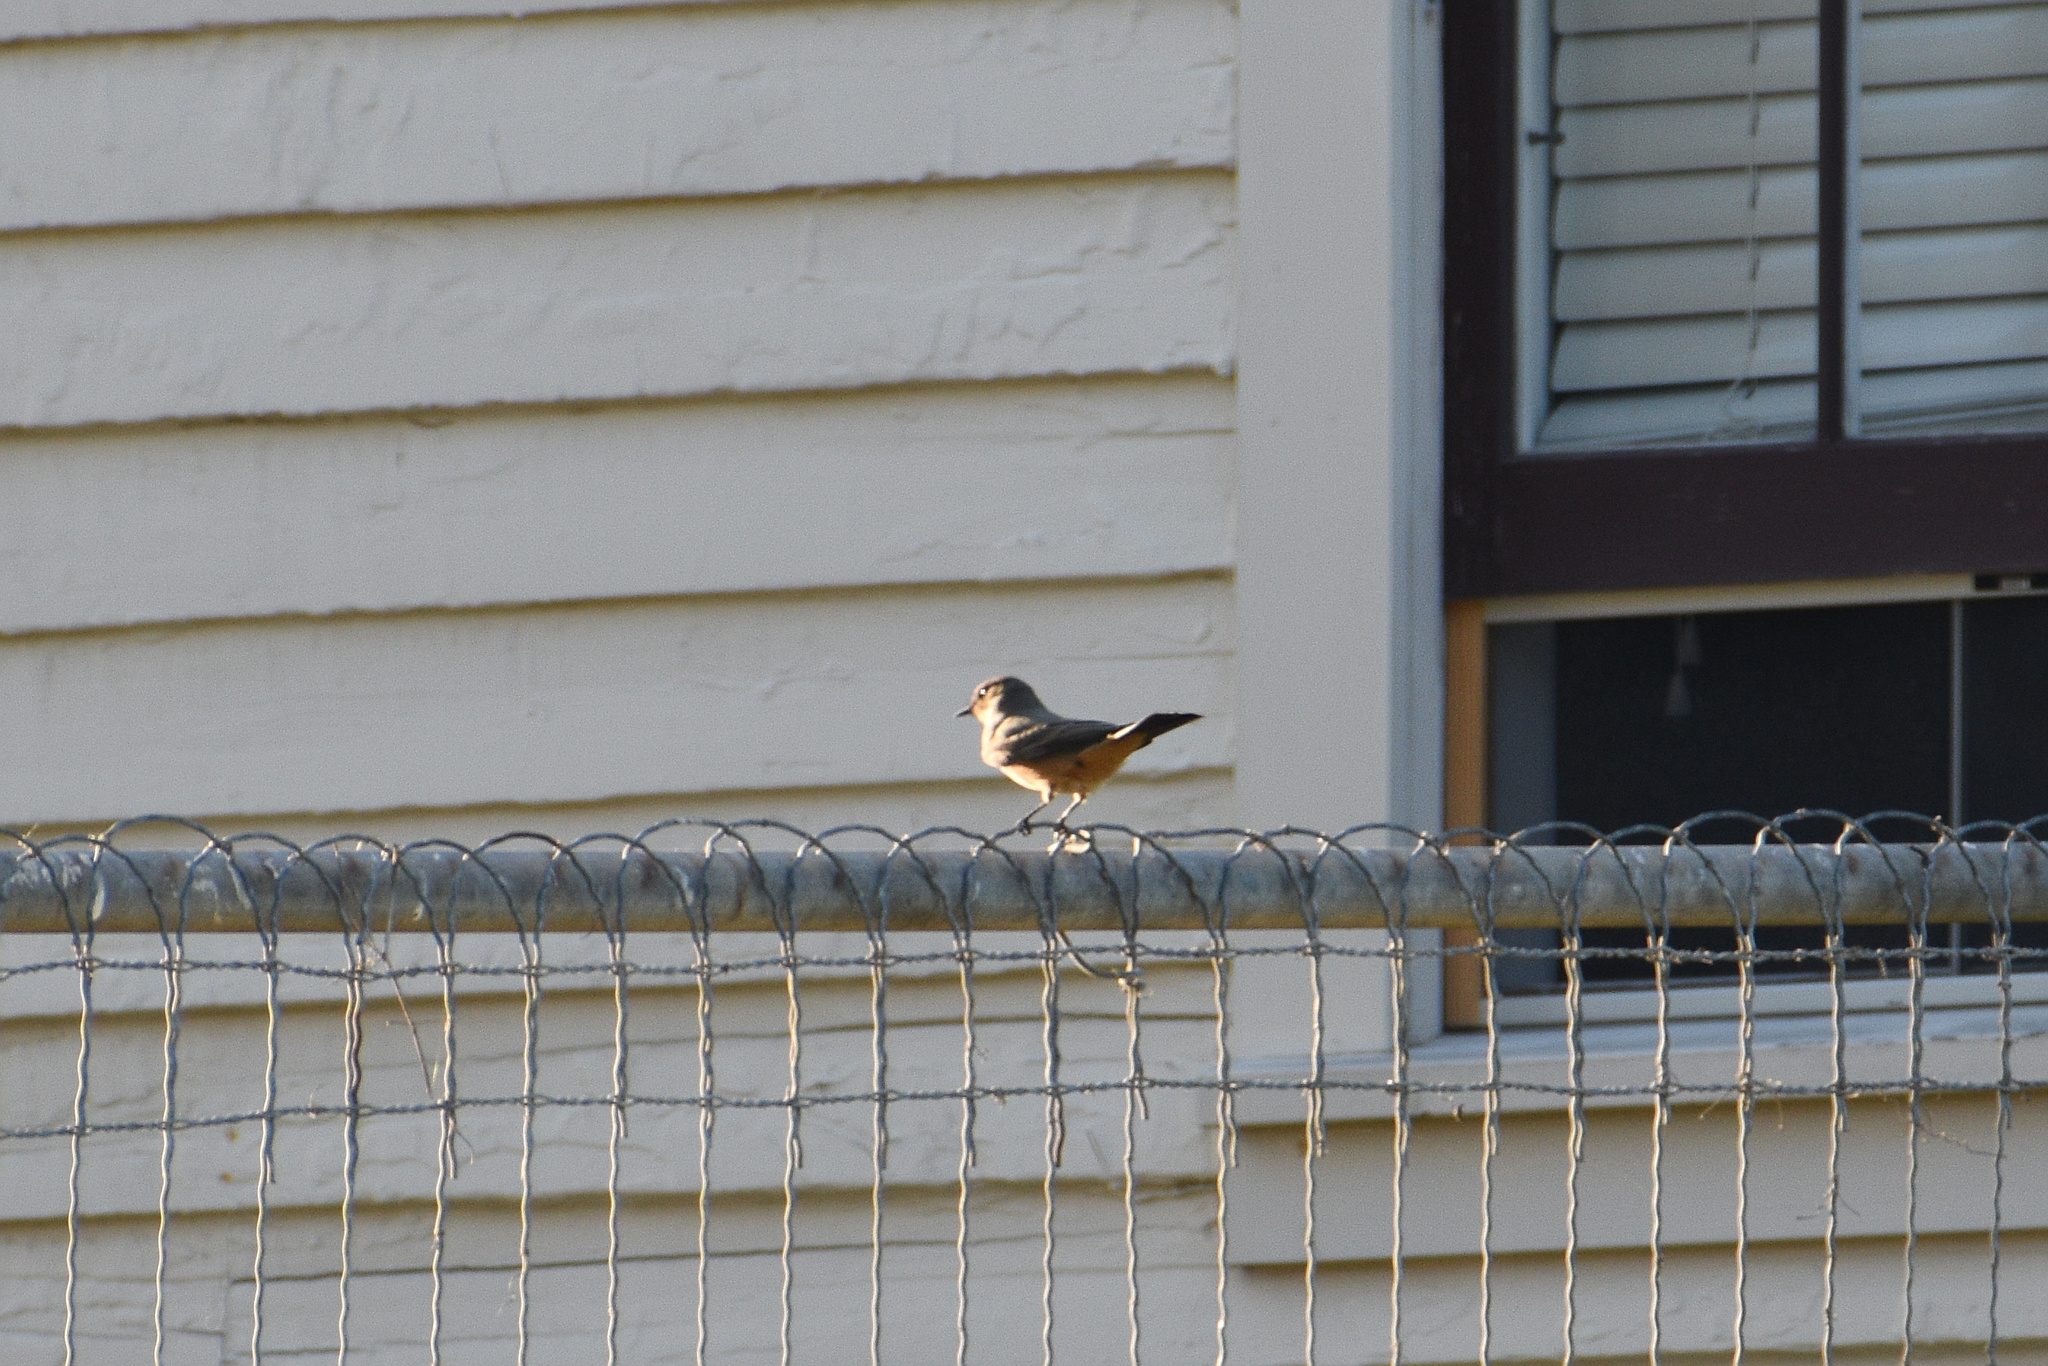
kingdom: Animalia
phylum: Chordata
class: Aves
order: Passeriformes
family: Tyrannidae
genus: Sayornis
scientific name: Sayornis saya
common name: Say's phoebe
